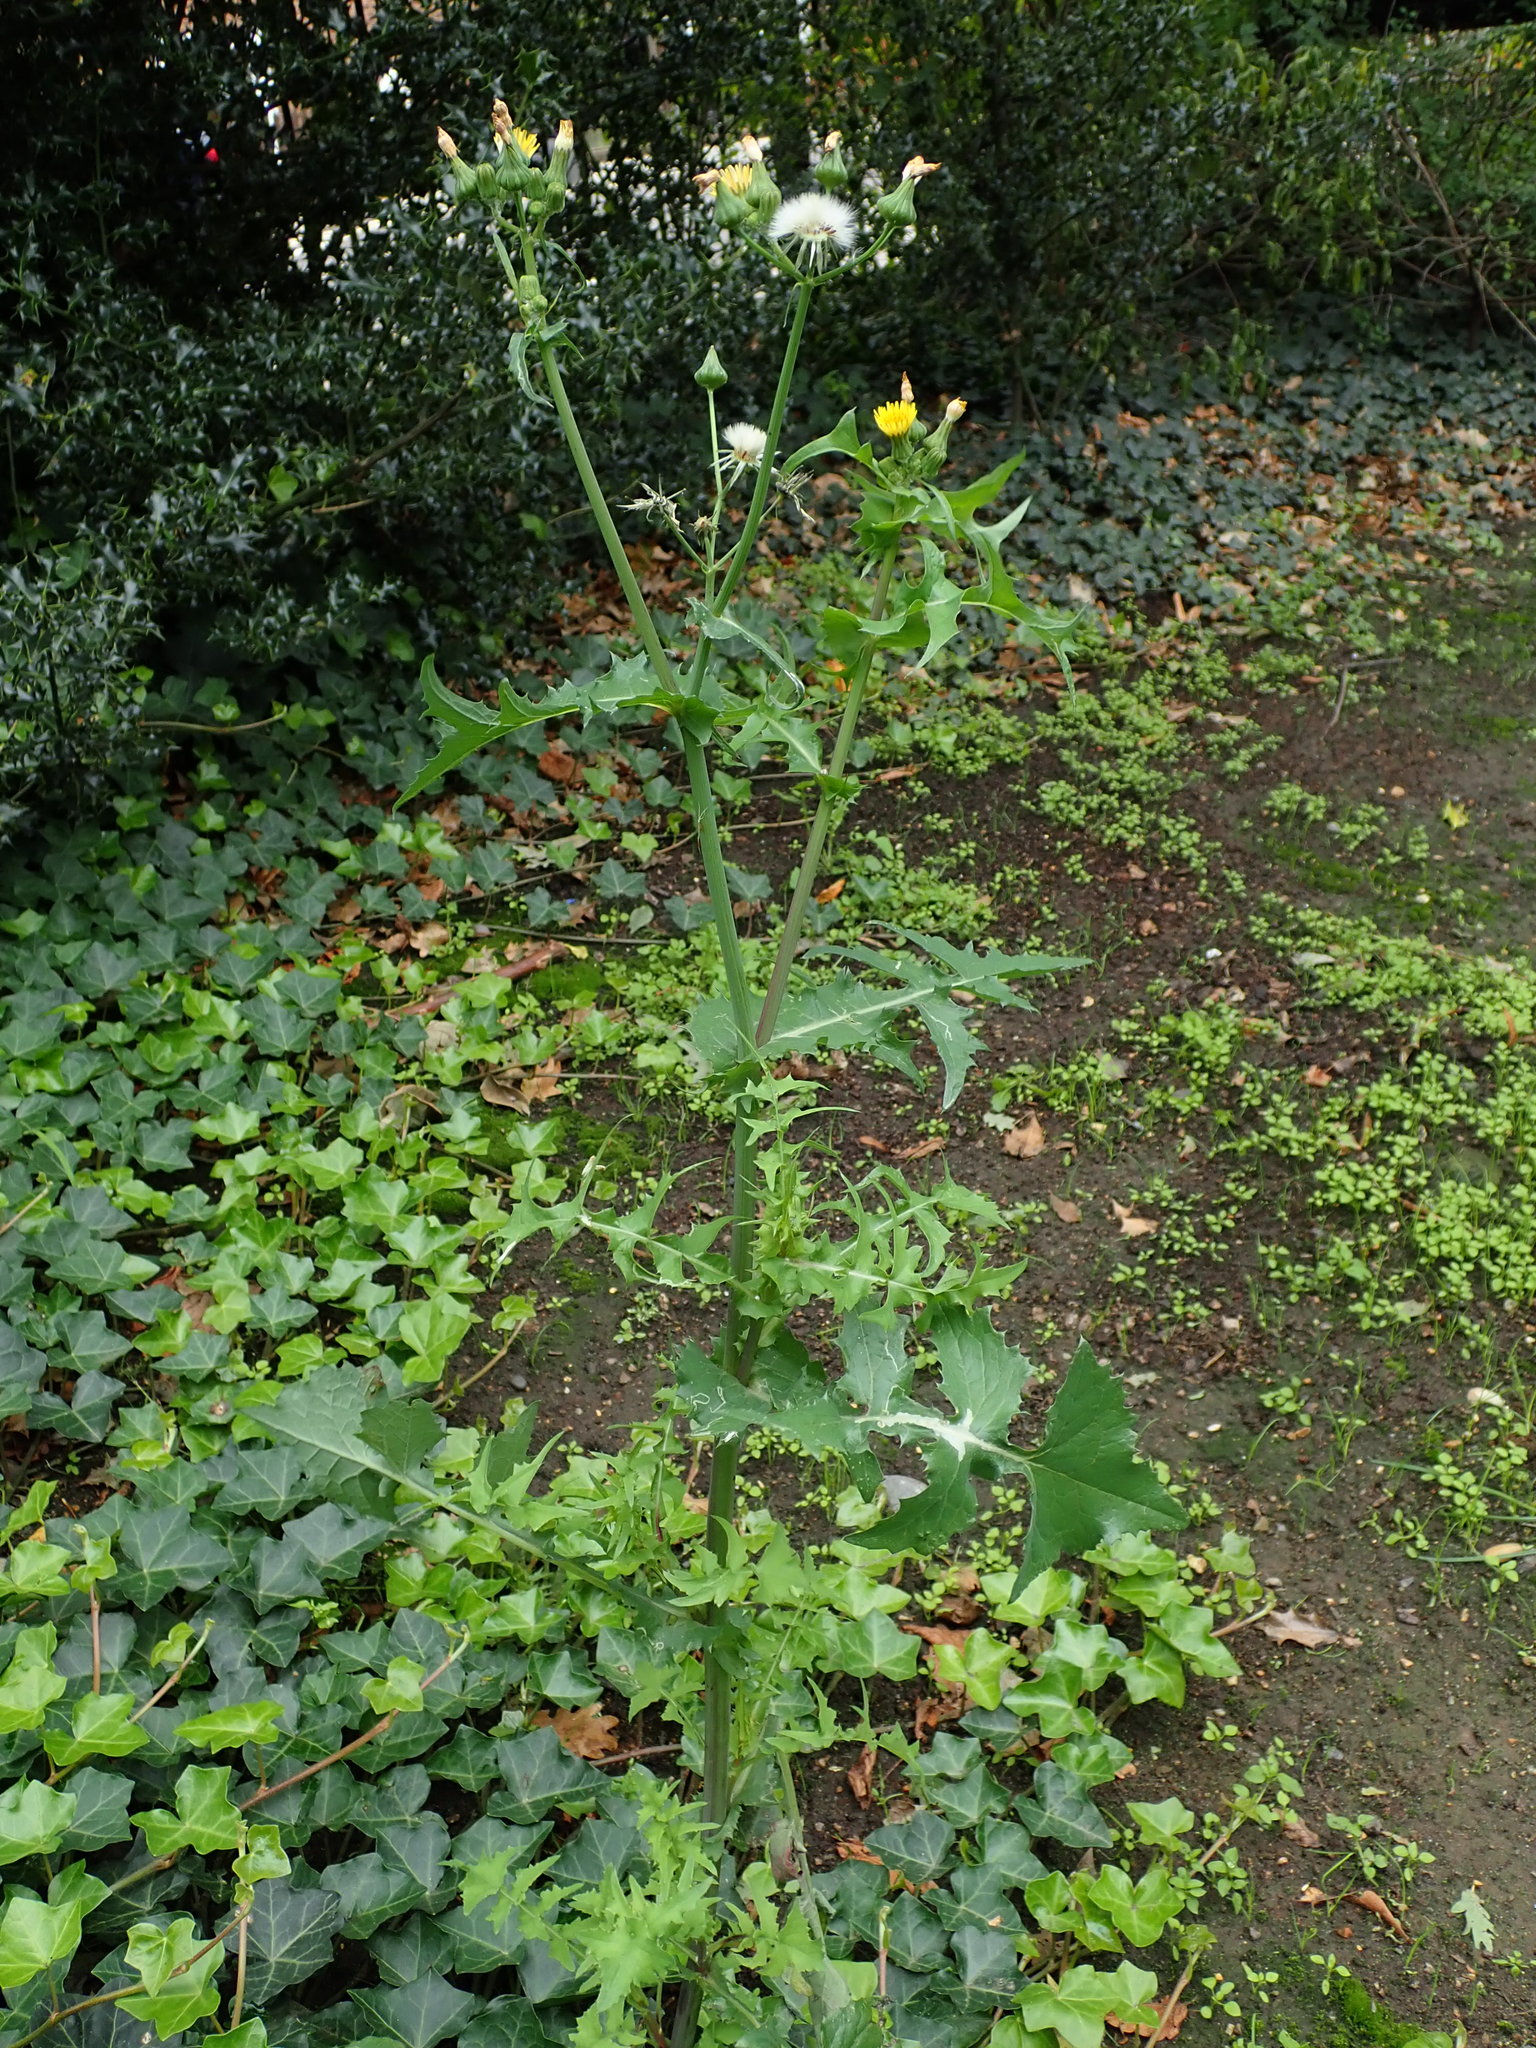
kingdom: Plantae
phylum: Tracheophyta
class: Magnoliopsida
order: Asterales
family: Asteraceae
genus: Sonchus
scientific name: Sonchus oleraceus
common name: Common sowthistle
